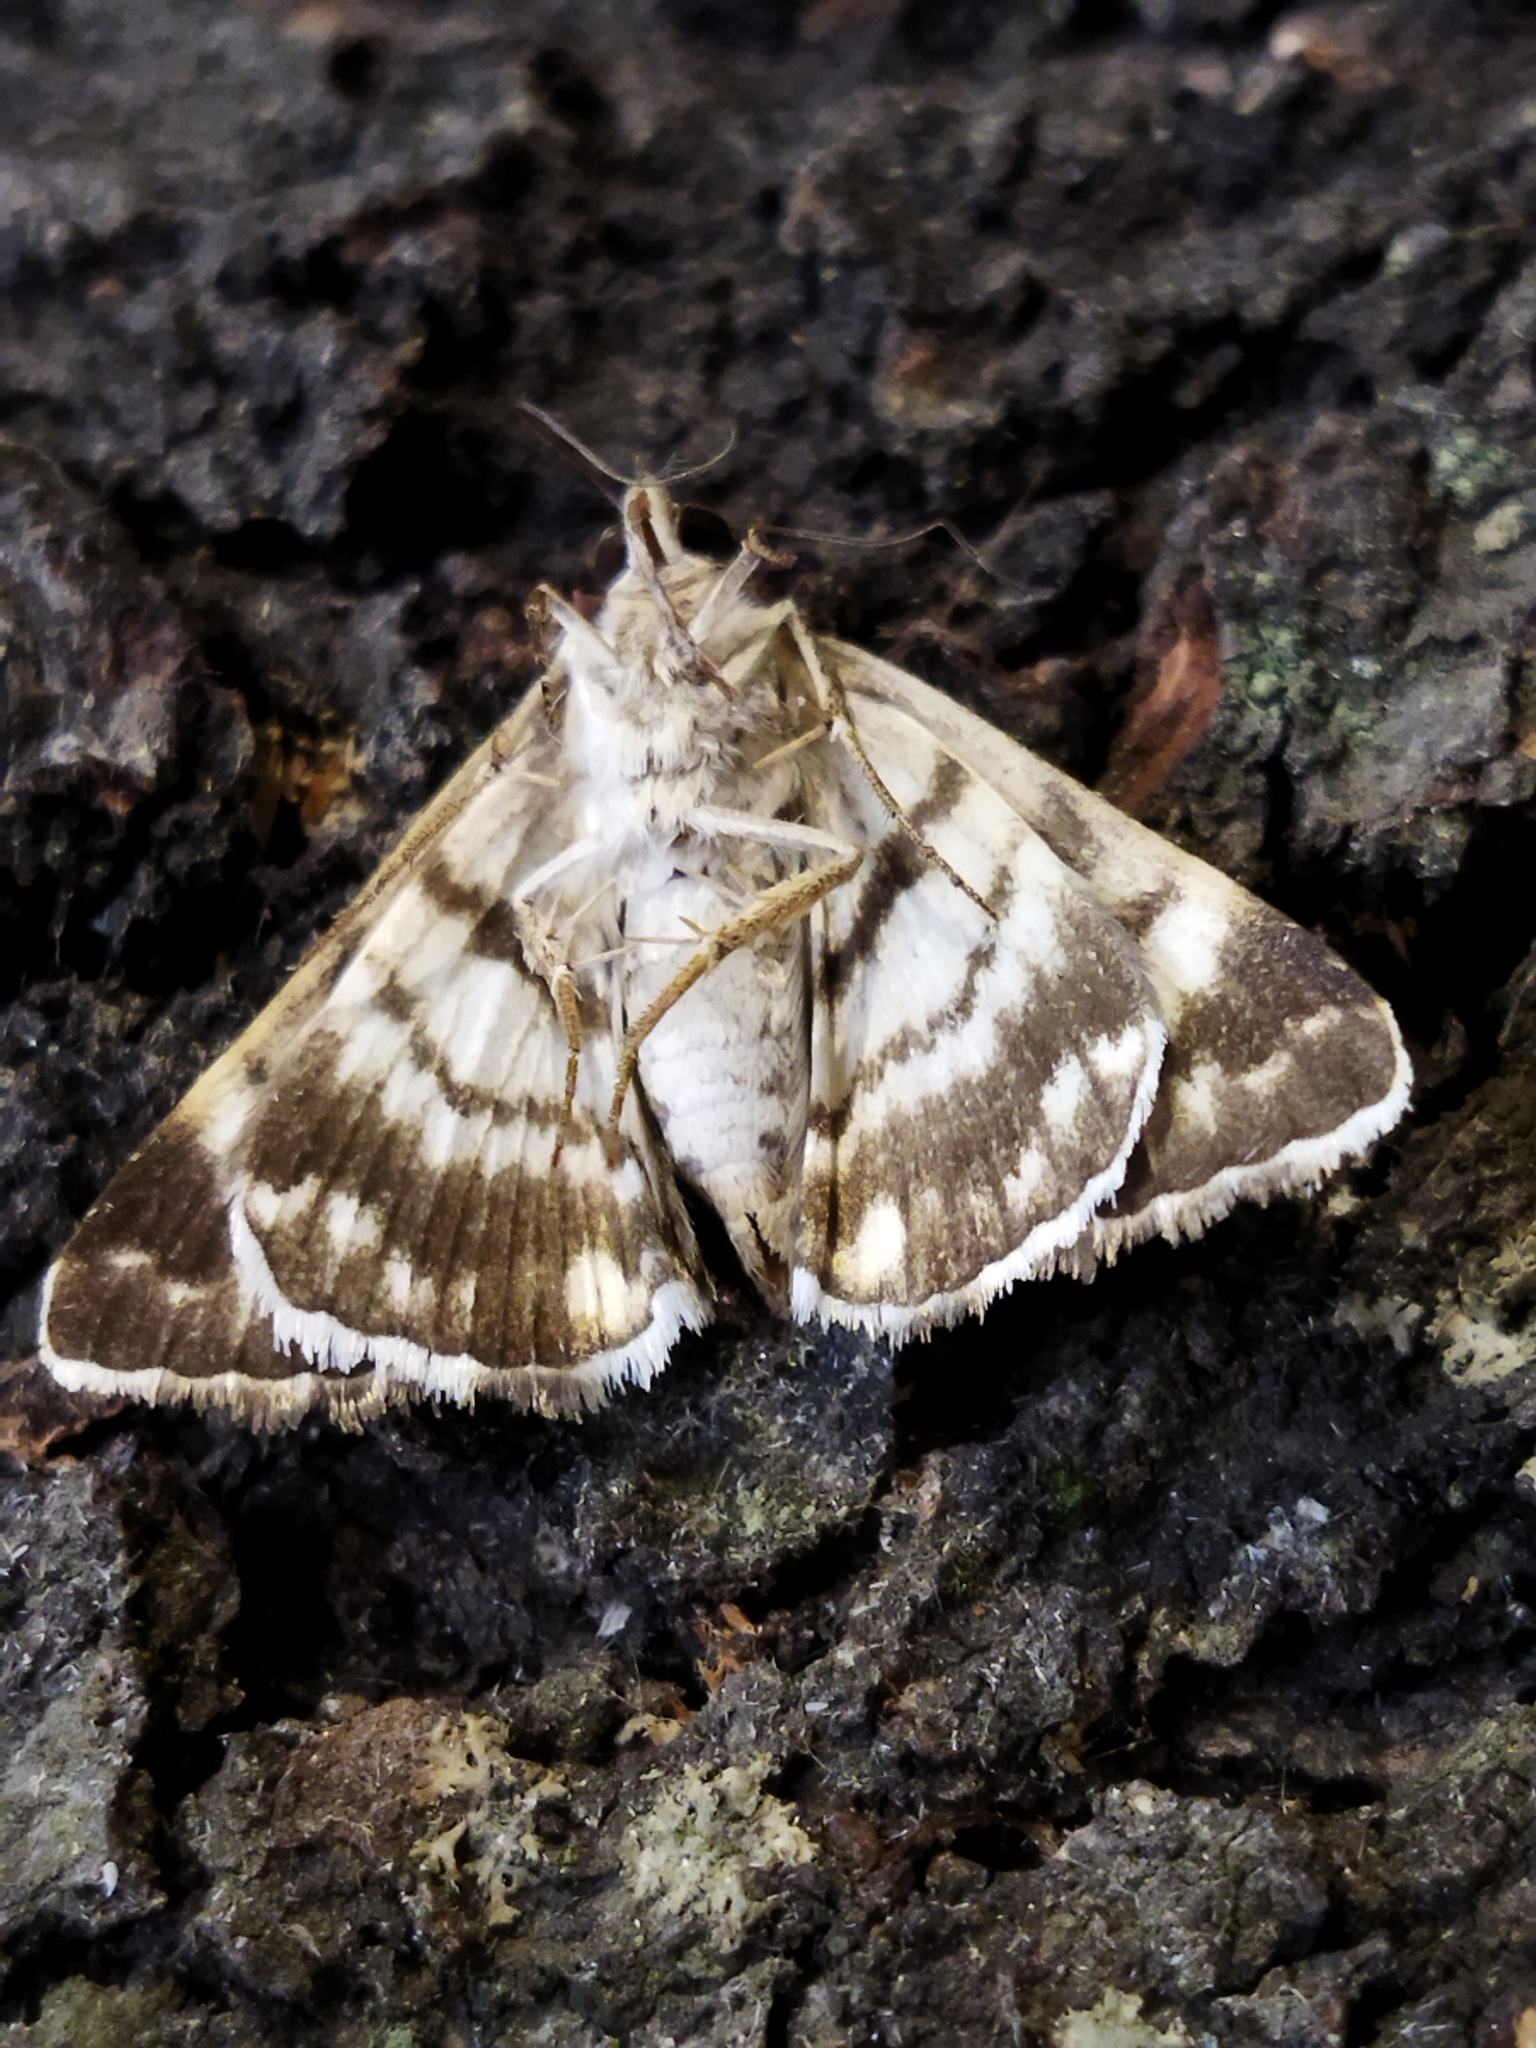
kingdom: Animalia
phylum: Arthropoda
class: Insecta
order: Lepidoptera
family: Erebidae
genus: Grammodes
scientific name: Grammodes stolida
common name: Geometrician
